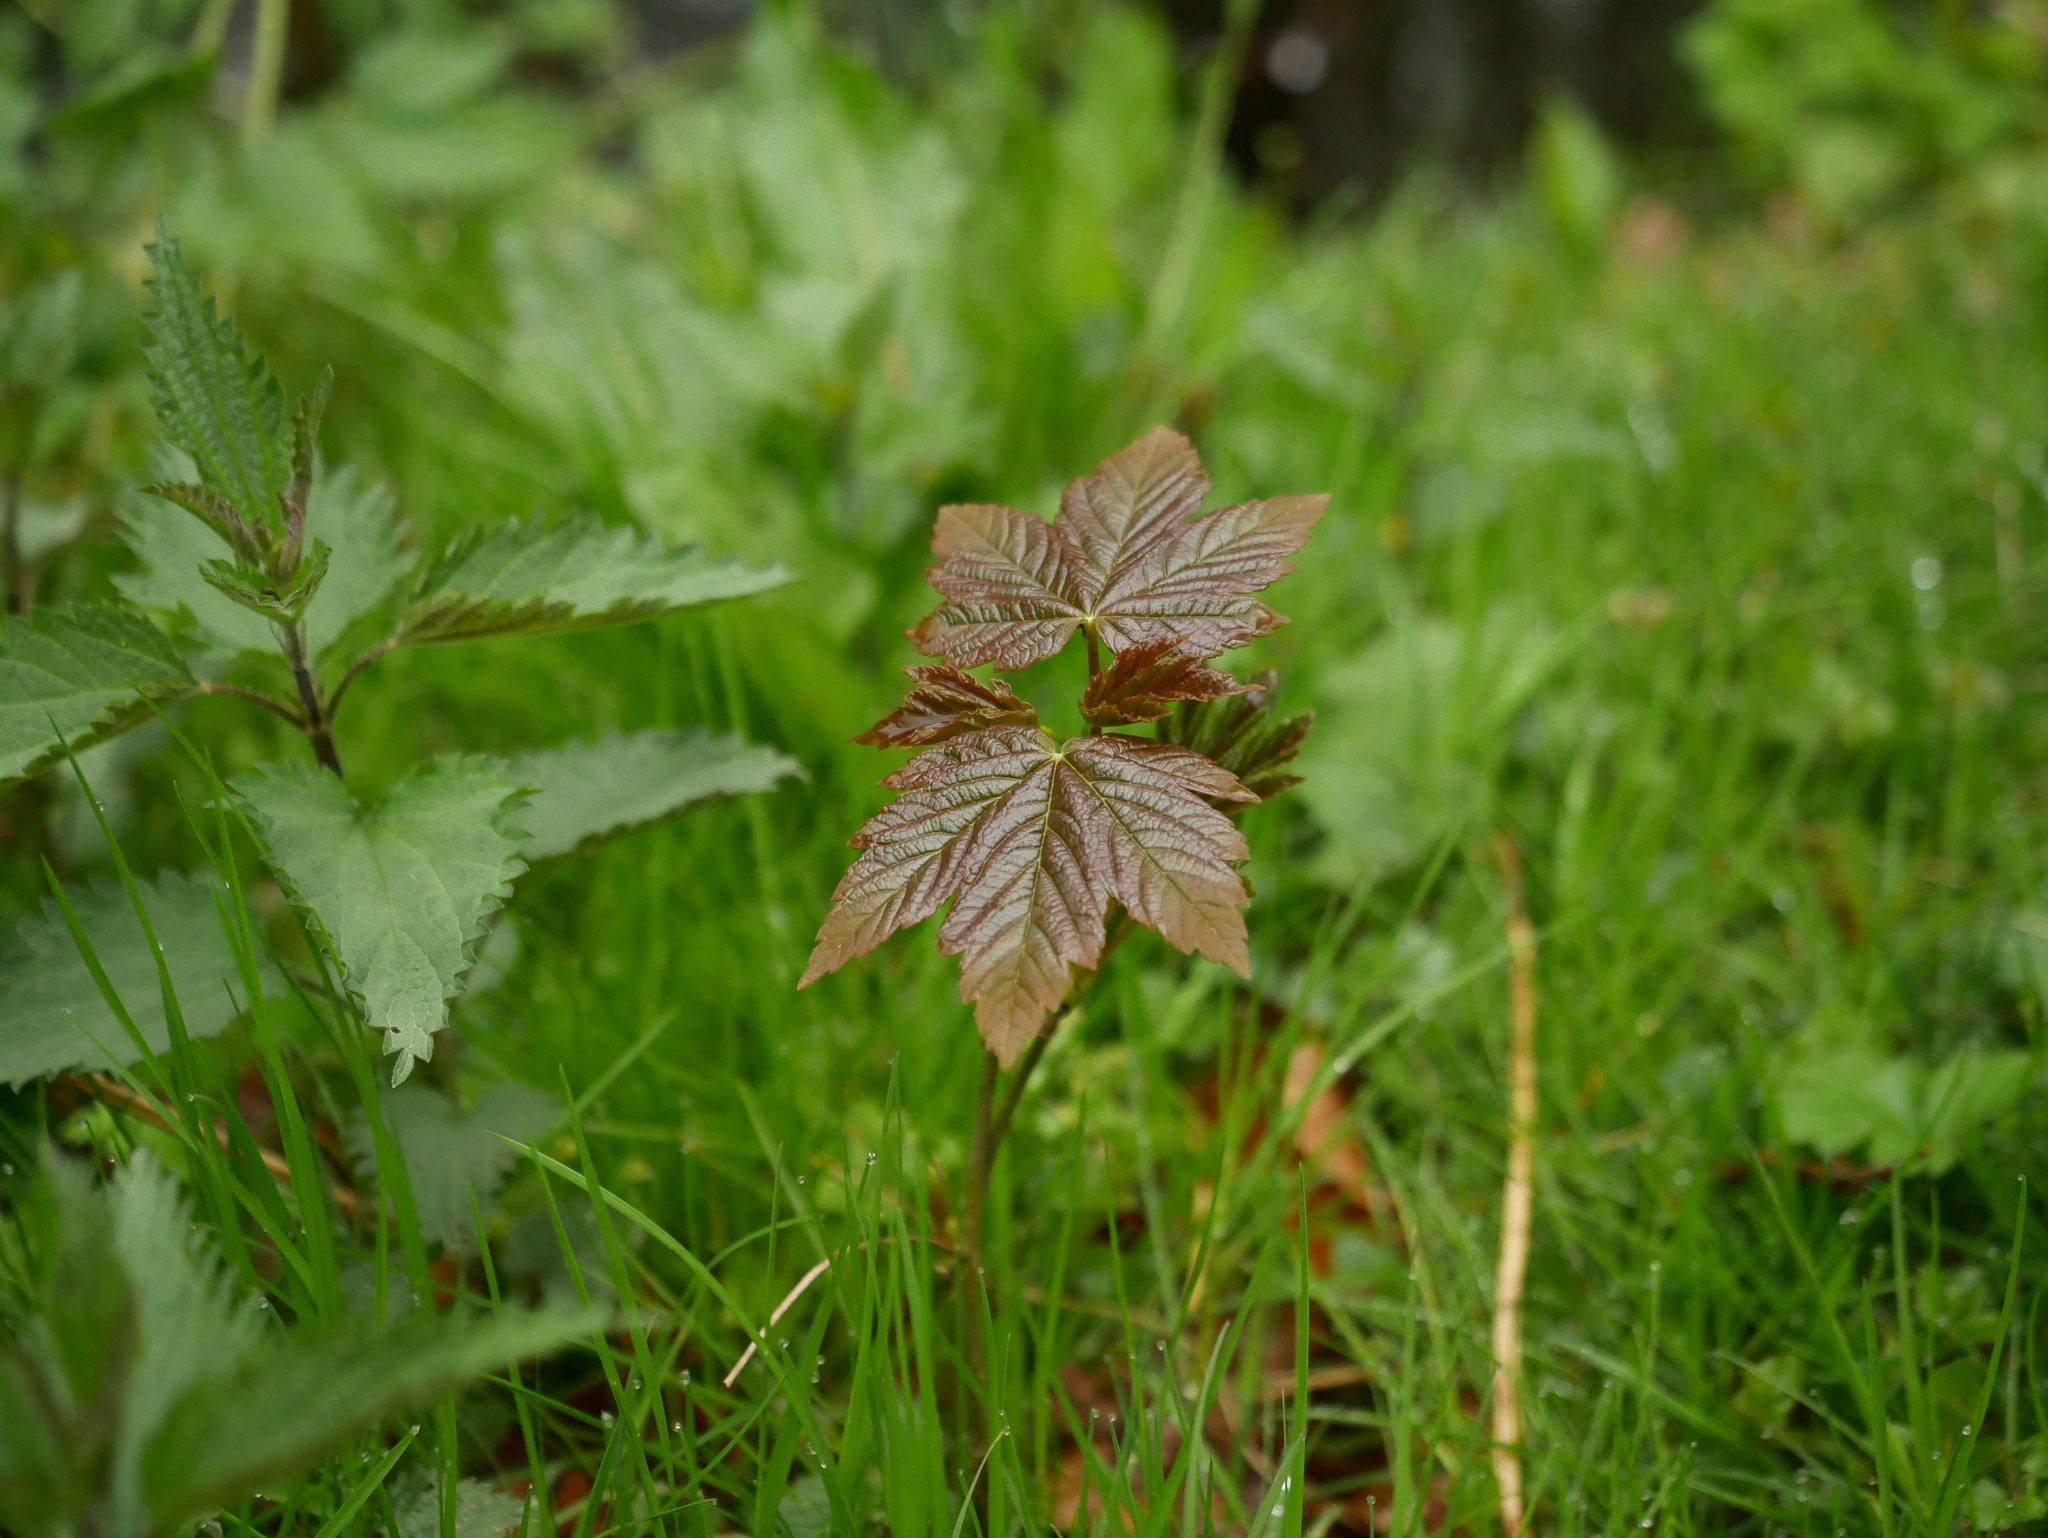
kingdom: Plantae
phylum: Tracheophyta
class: Magnoliopsida
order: Sapindales
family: Sapindaceae
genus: Acer
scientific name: Acer pseudoplatanus
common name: Sycamore
